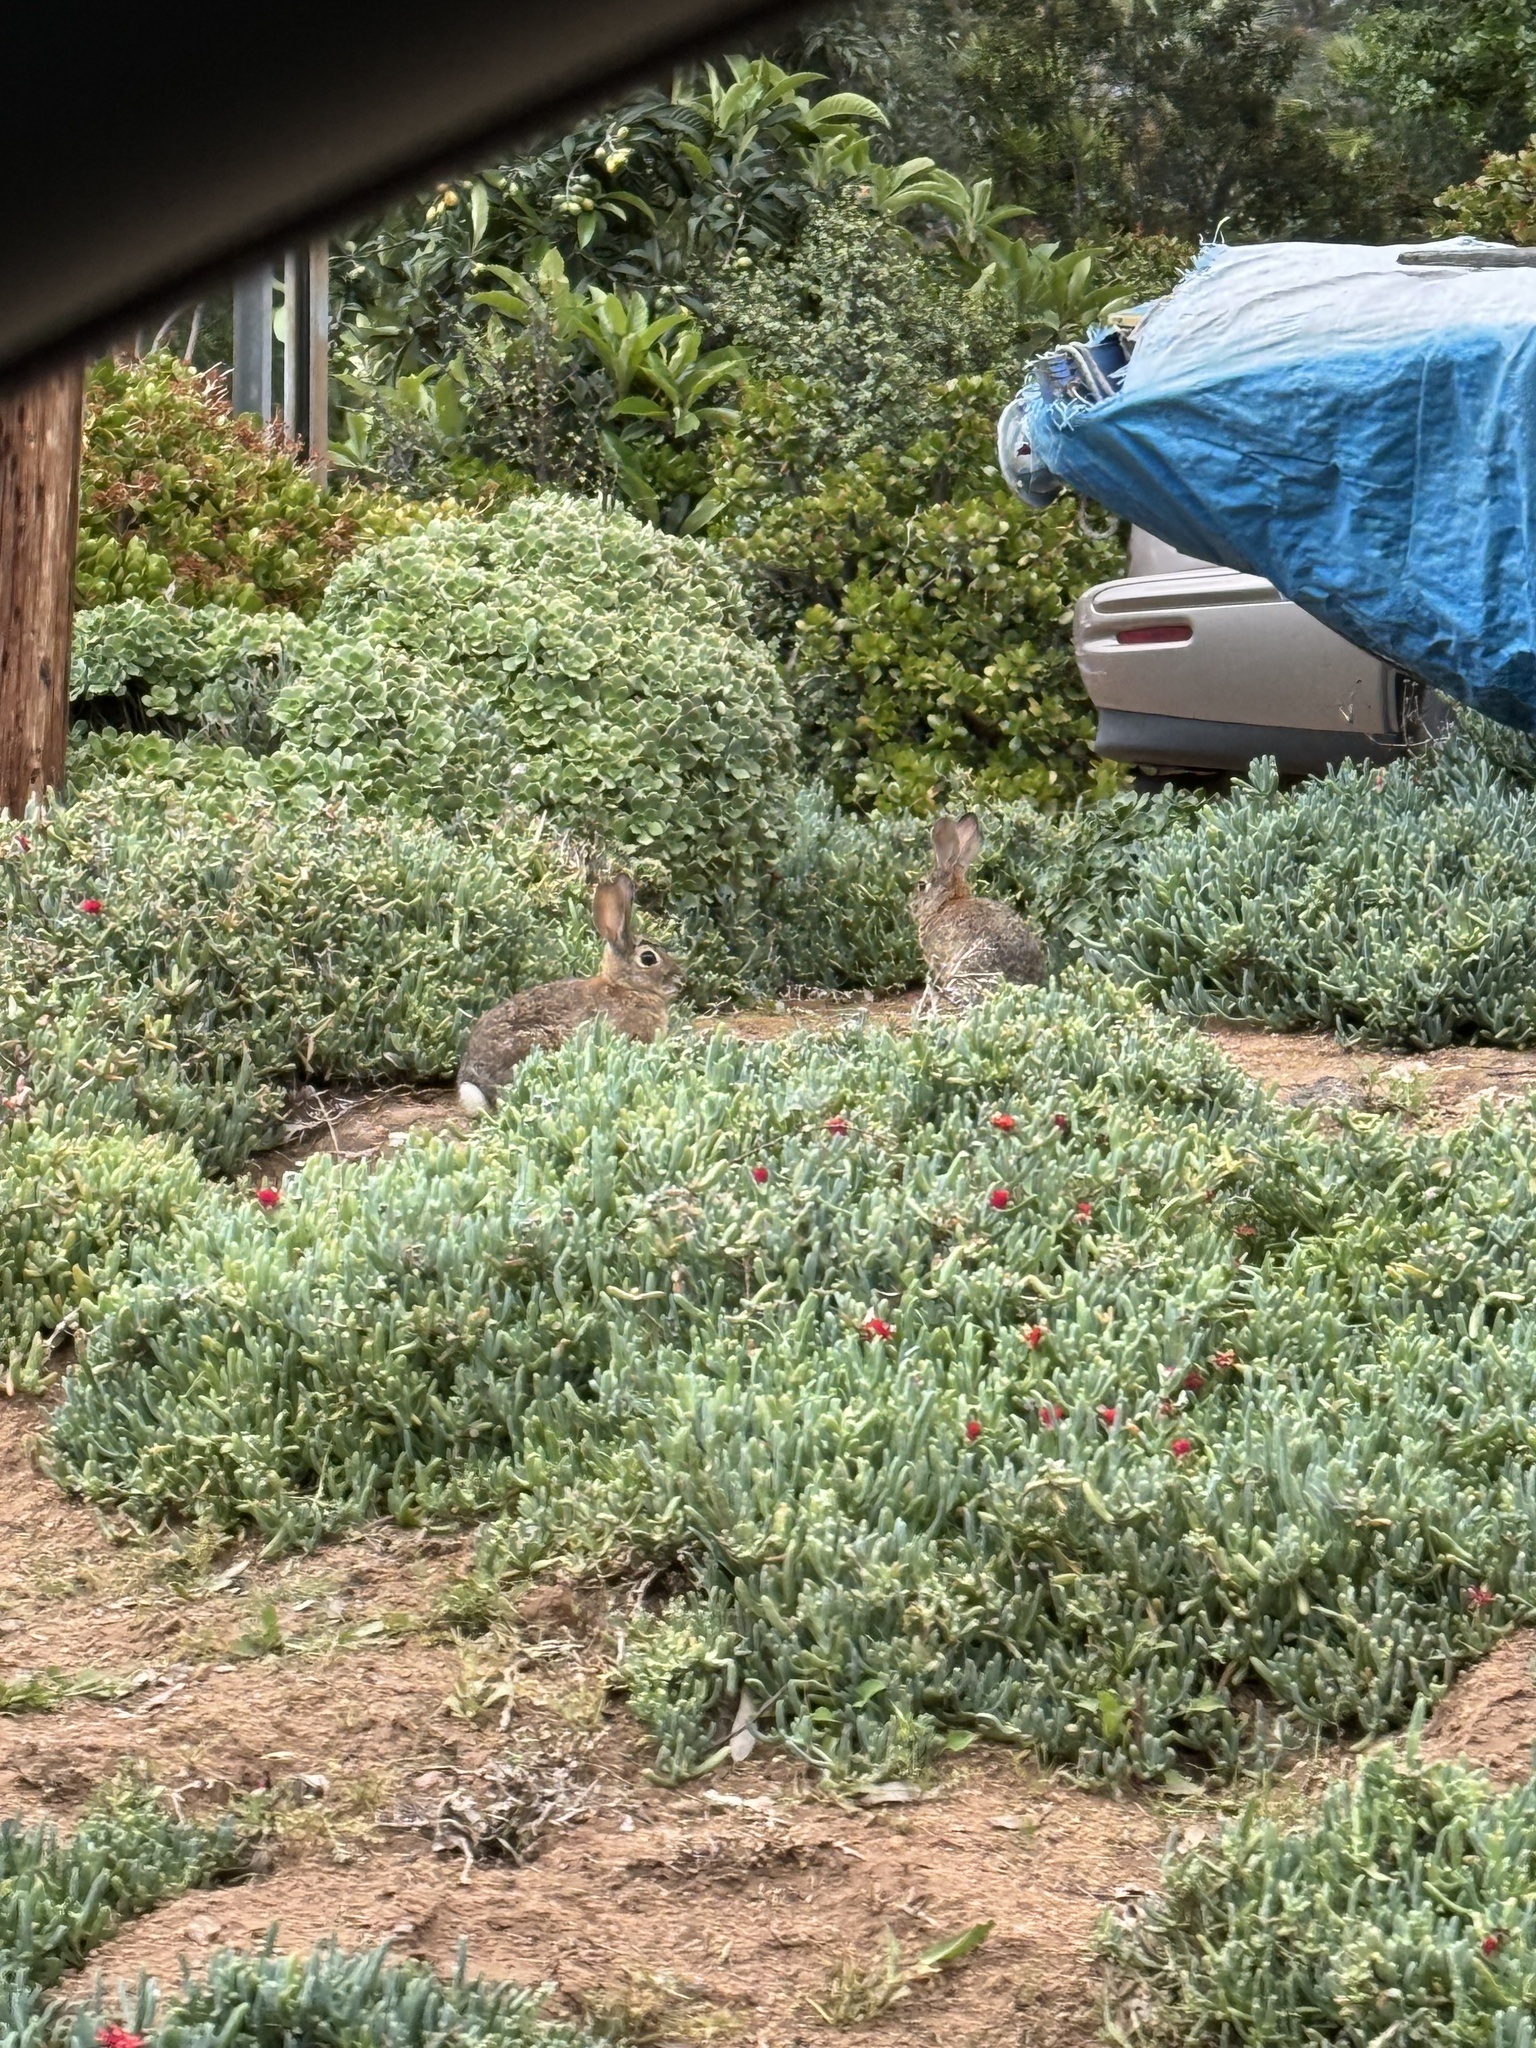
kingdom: Animalia
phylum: Chordata
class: Mammalia
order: Lagomorpha
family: Leporidae
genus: Sylvilagus
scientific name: Sylvilagus audubonii
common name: Desert cottontail
